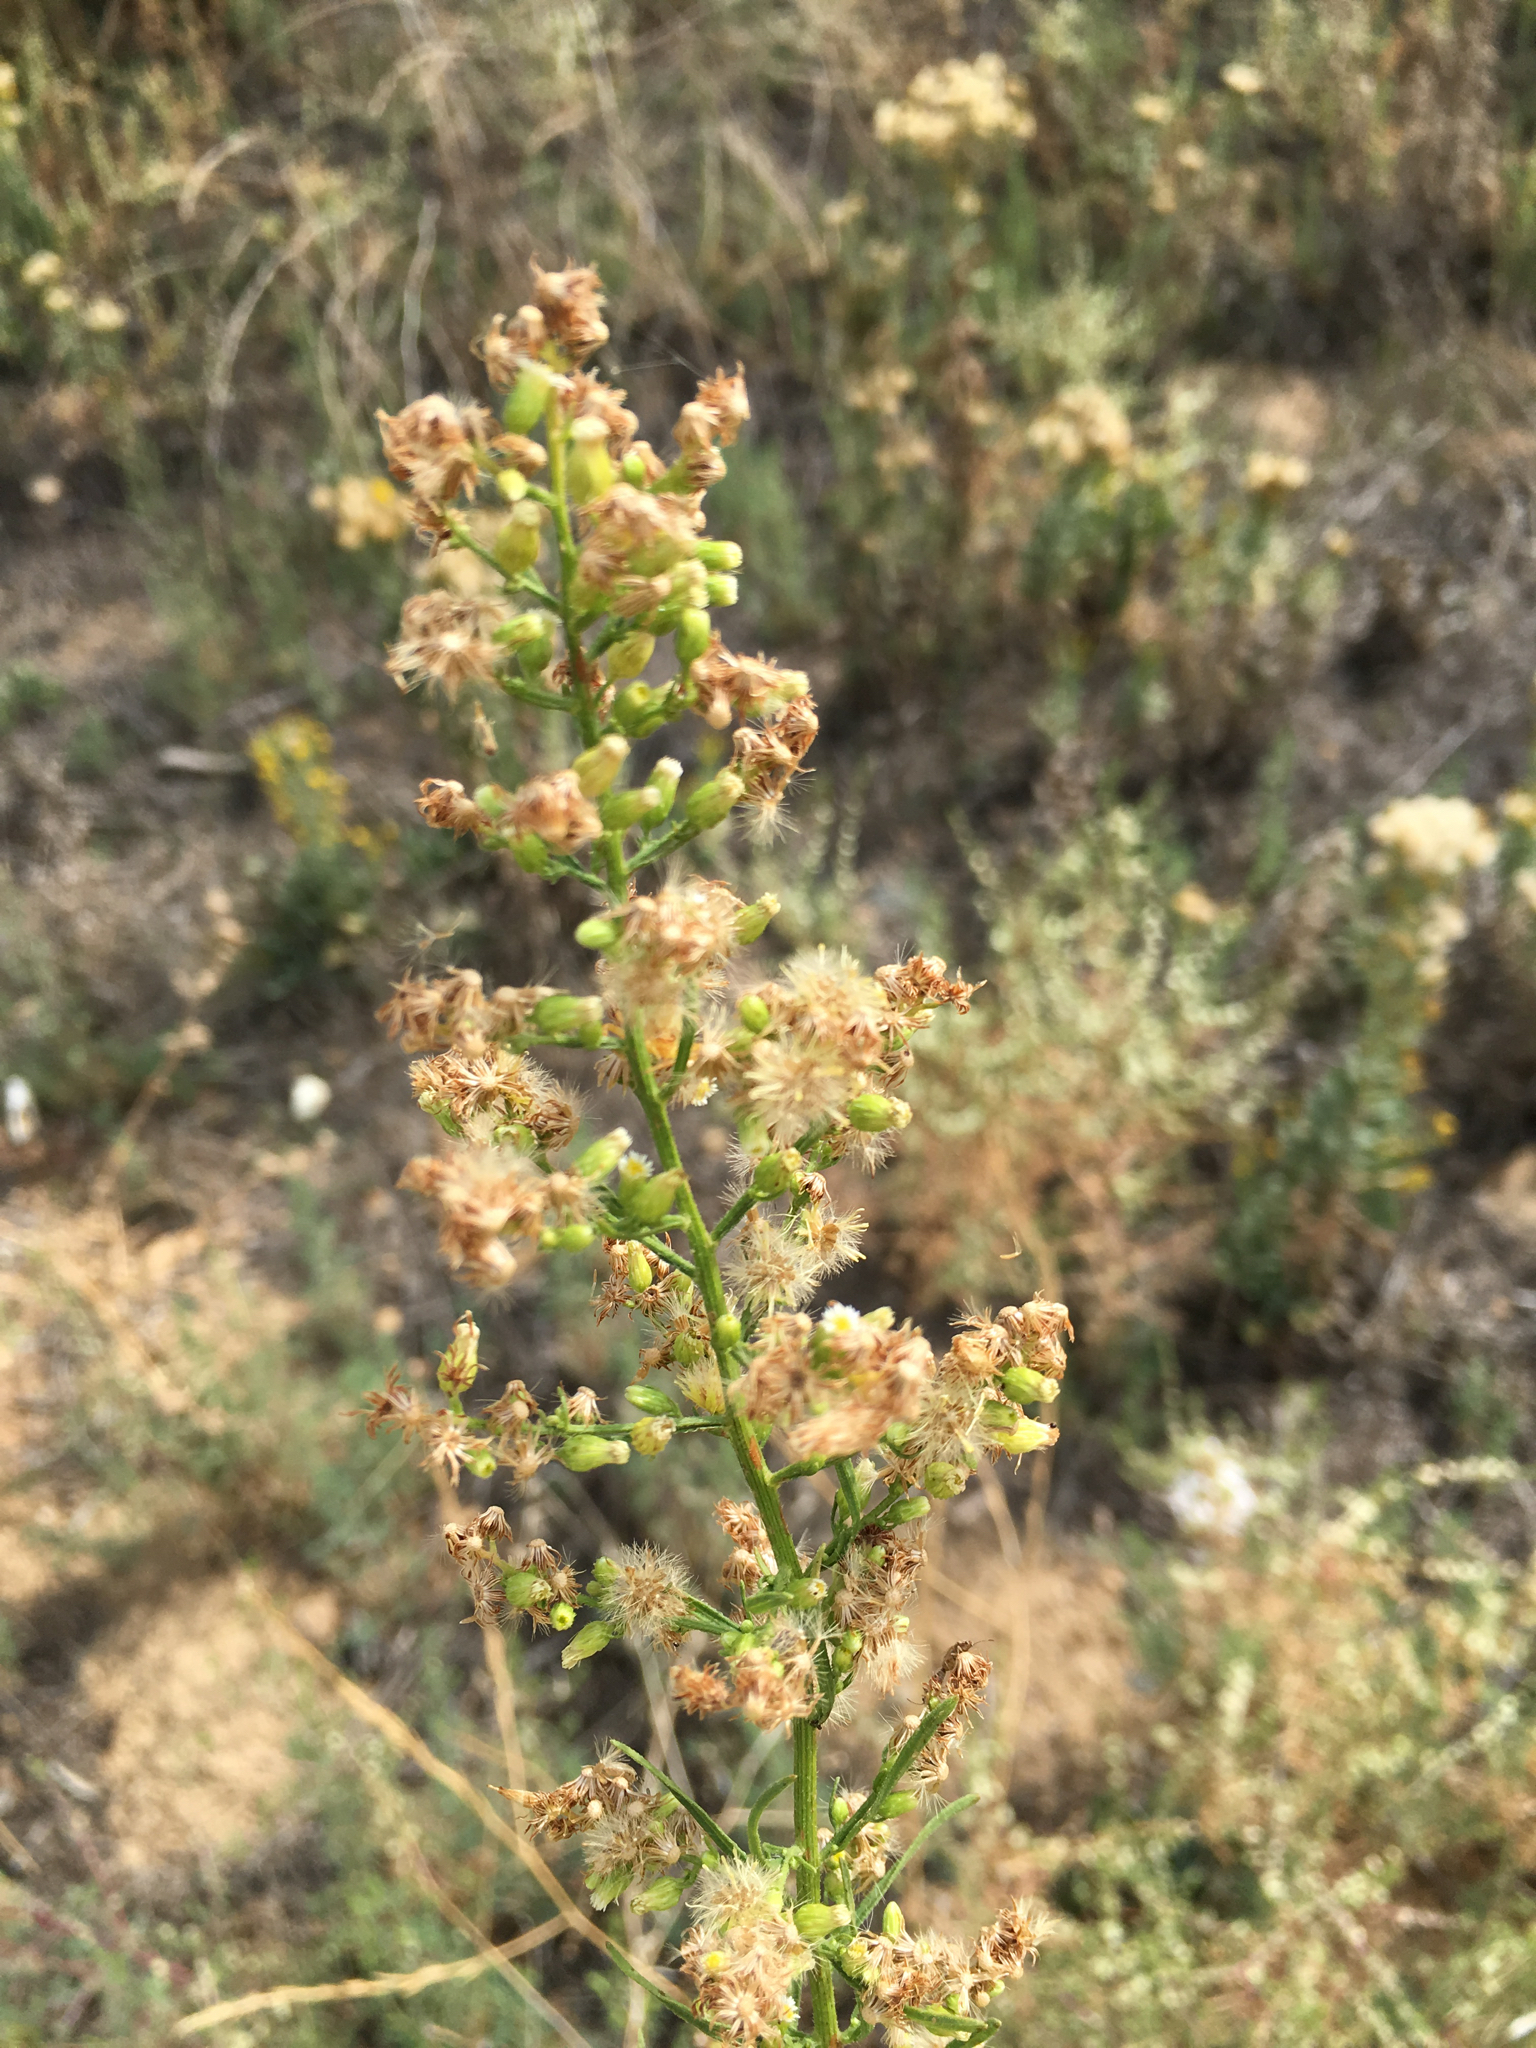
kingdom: Plantae
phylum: Tracheophyta
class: Magnoliopsida
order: Asterales
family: Asteraceae
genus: Erigeron
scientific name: Erigeron canadensis
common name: Canadian fleabane
